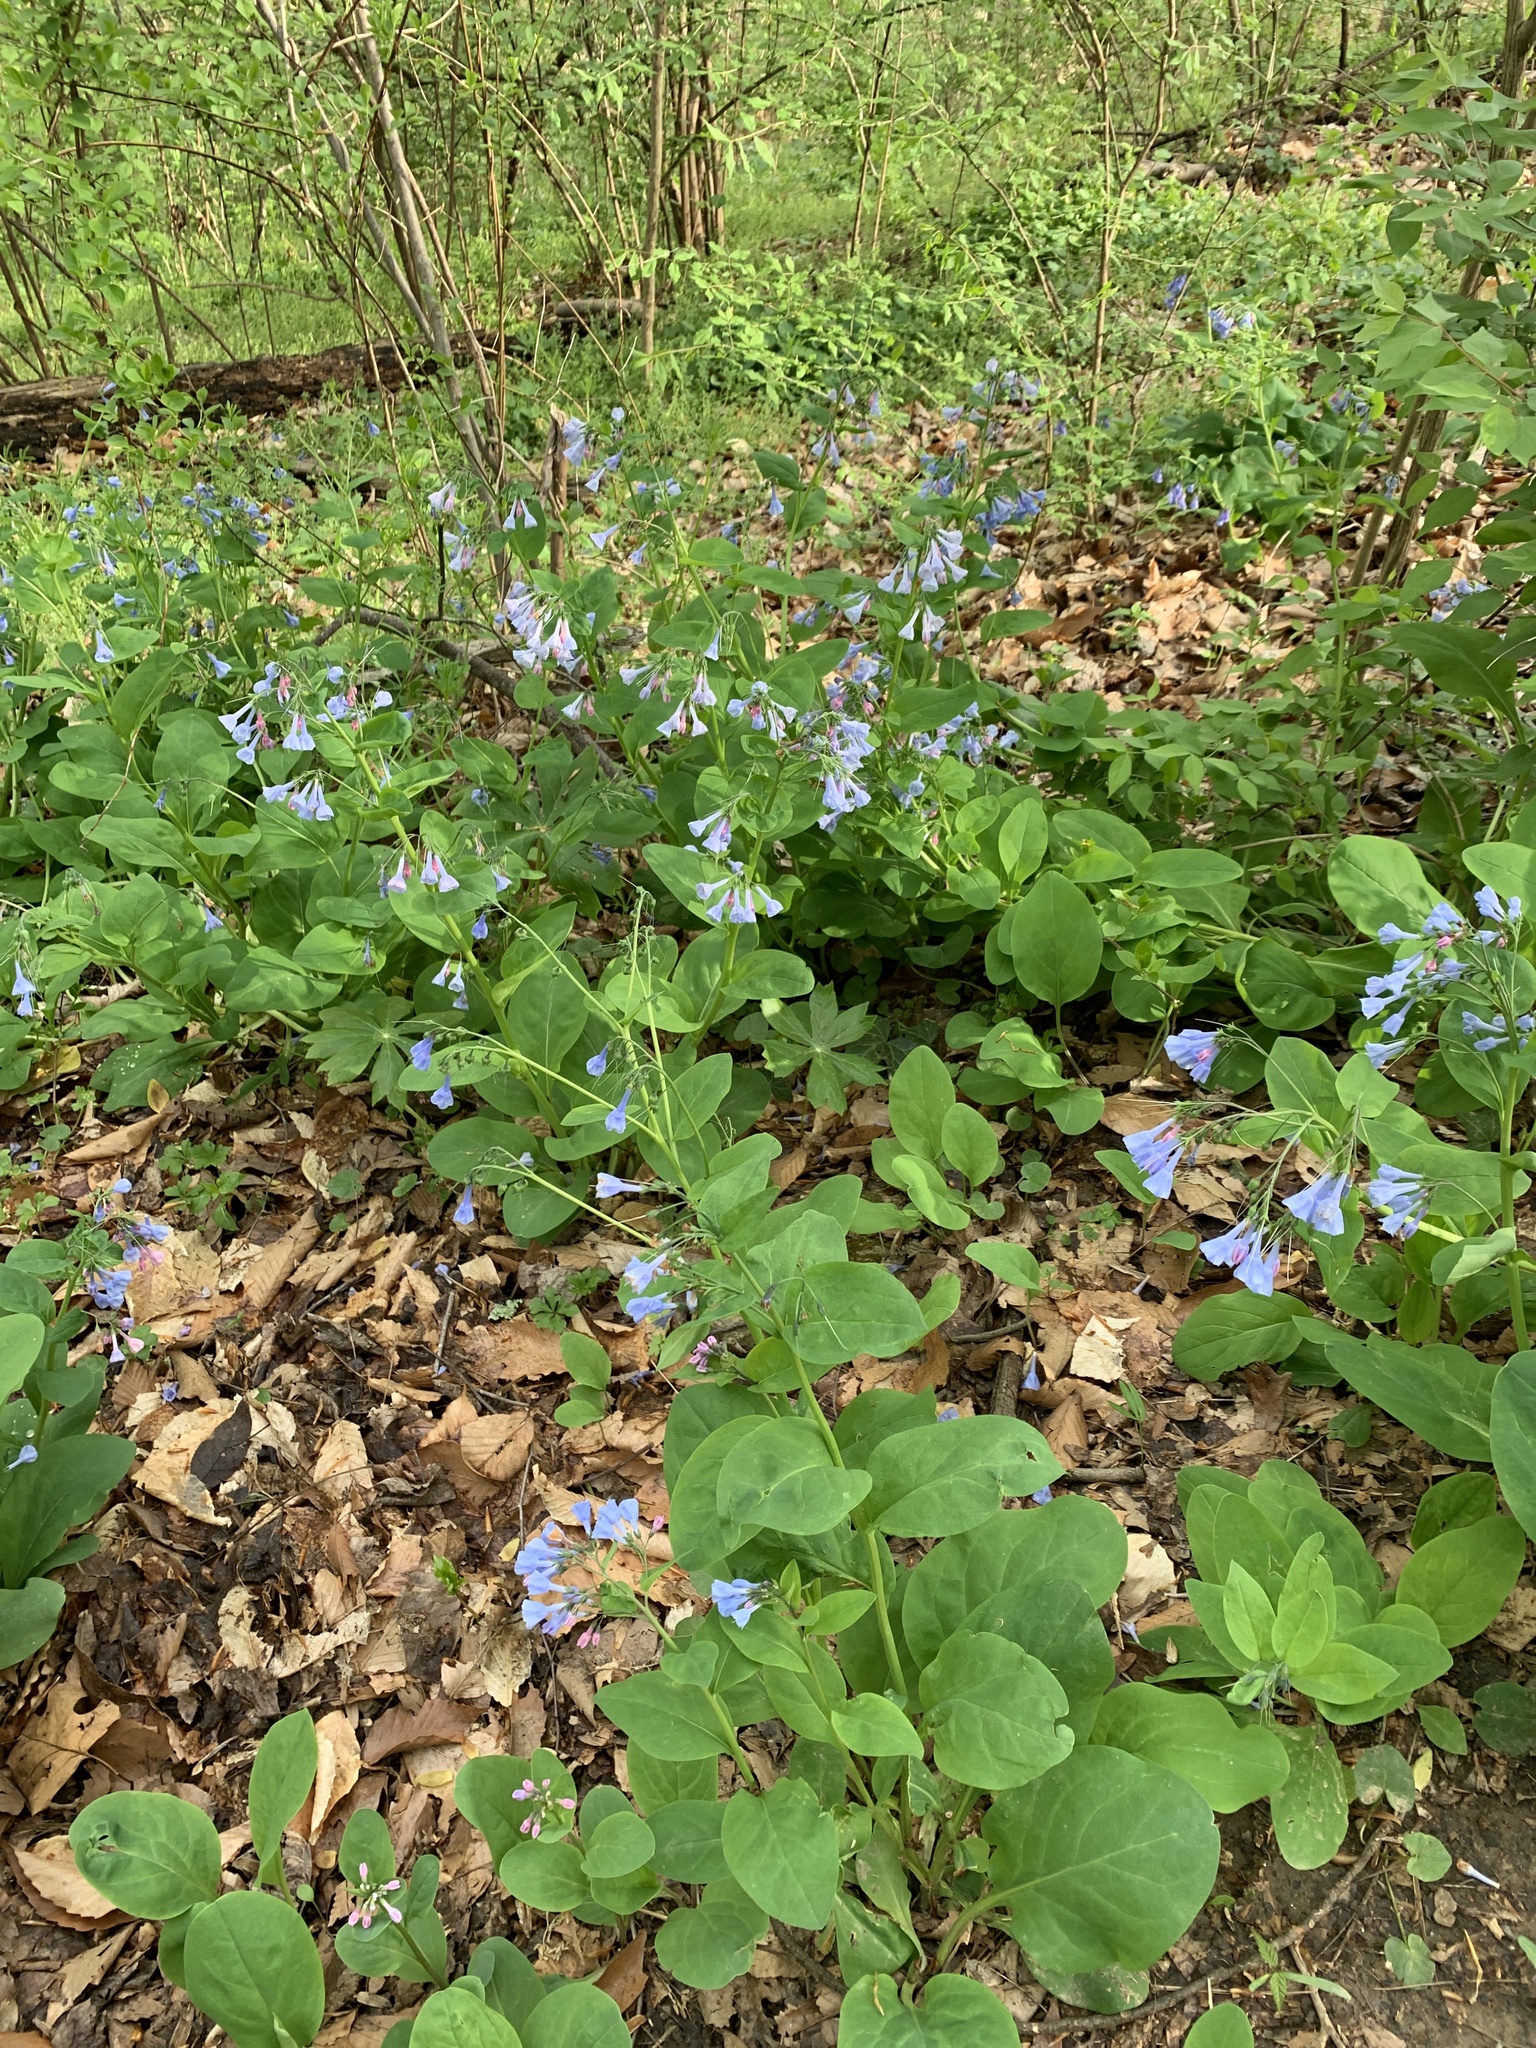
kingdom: Plantae
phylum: Tracheophyta
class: Magnoliopsida
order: Boraginales
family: Boraginaceae
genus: Mertensia
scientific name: Mertensia virginica
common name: Virginia bluebells
